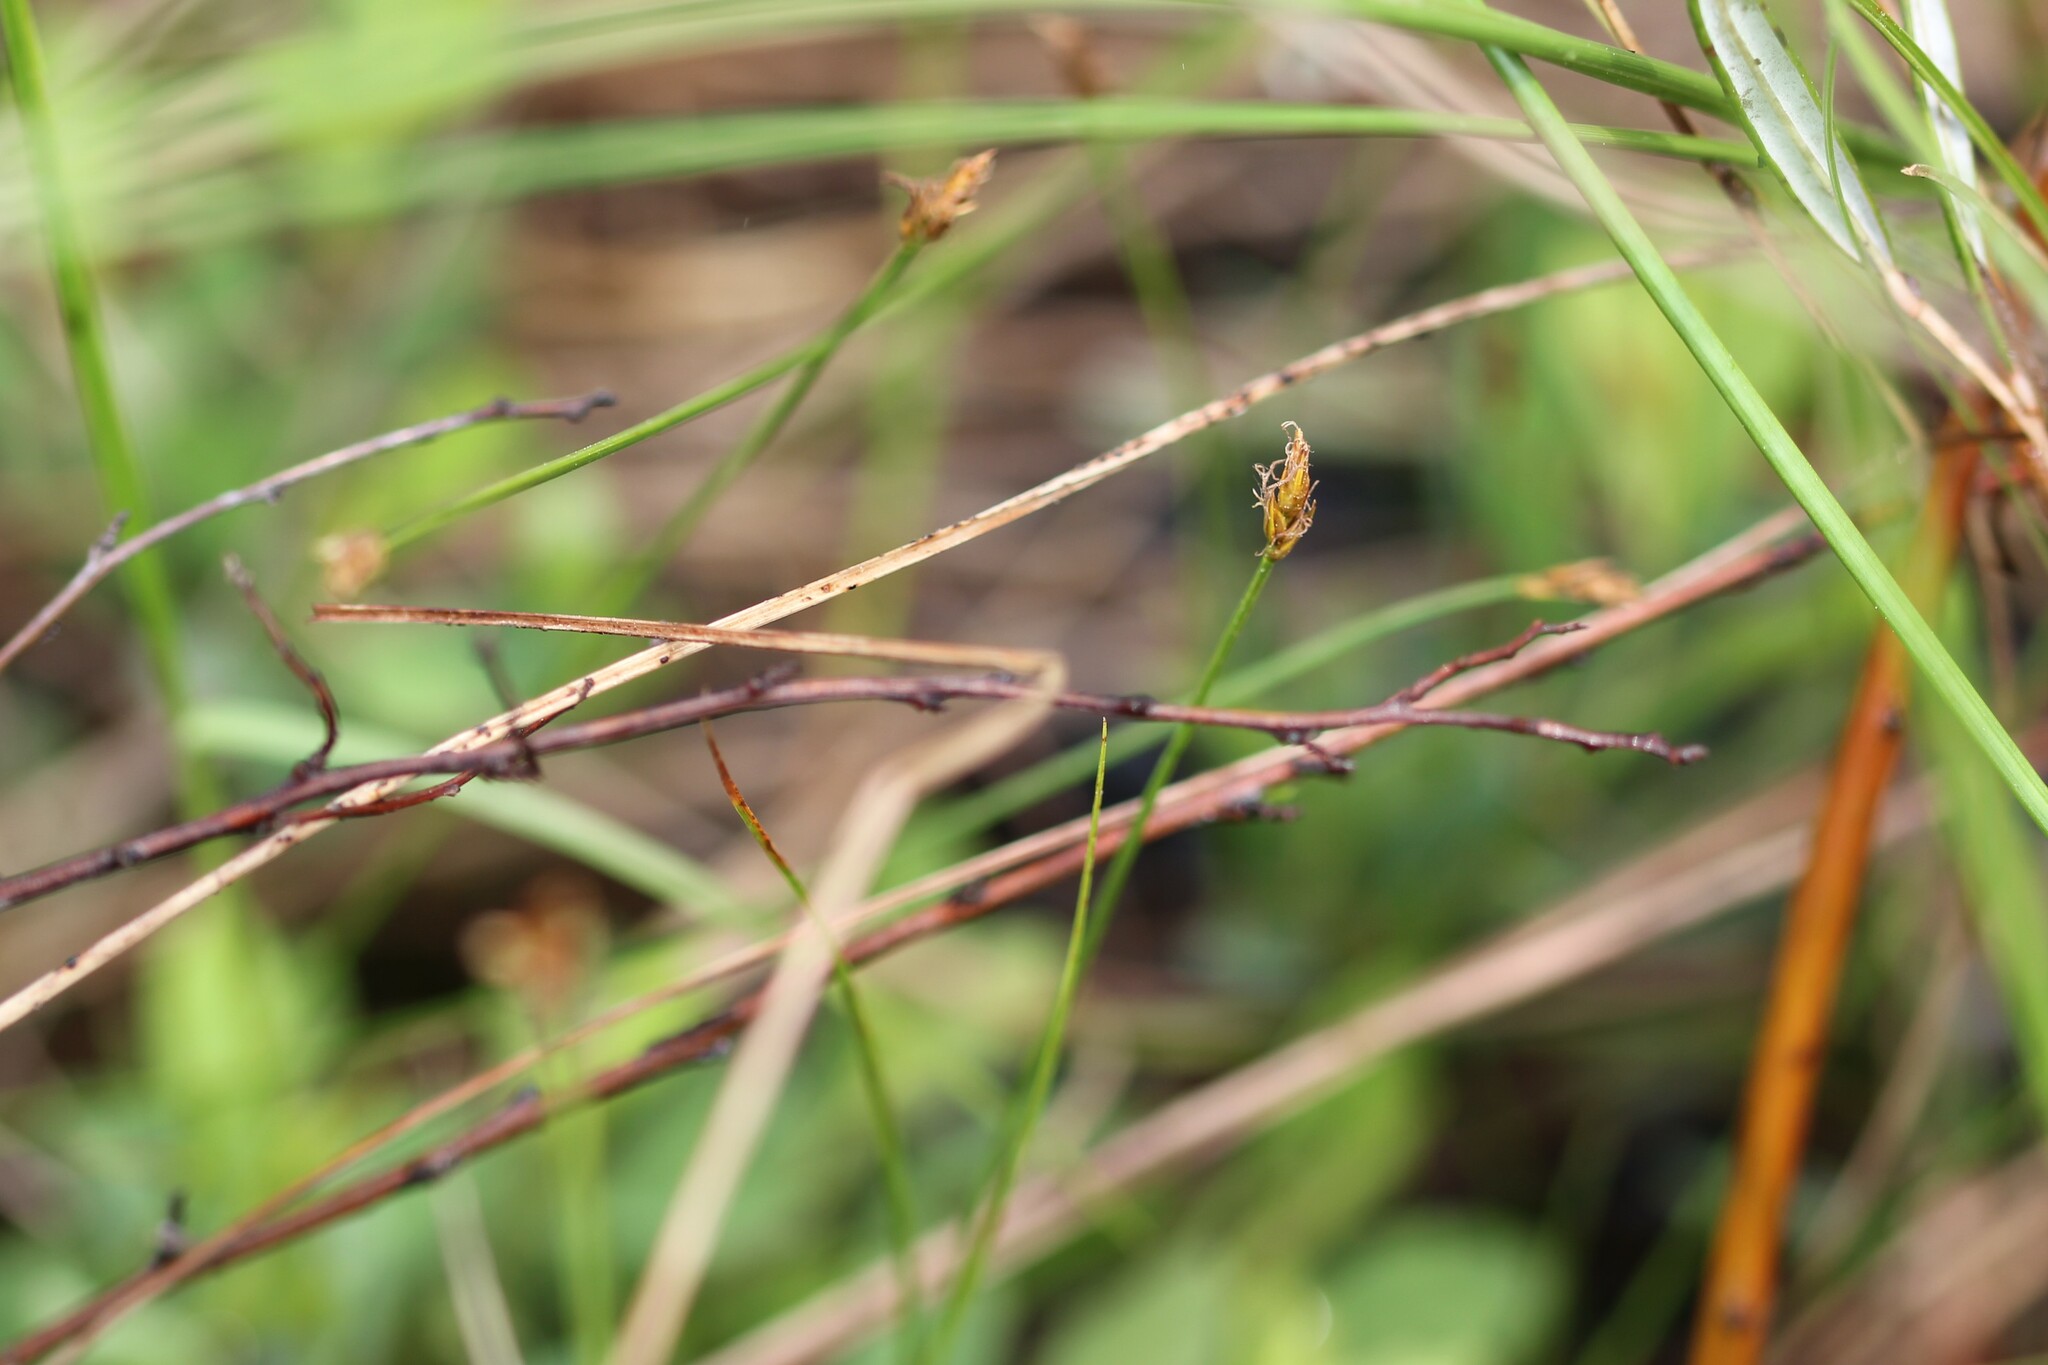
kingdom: Plantae
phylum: Tracheophyta
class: Liliopsida
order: Poales
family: Cyperaceae
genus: Carex
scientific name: Carex chordorrhiza
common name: String sedge
